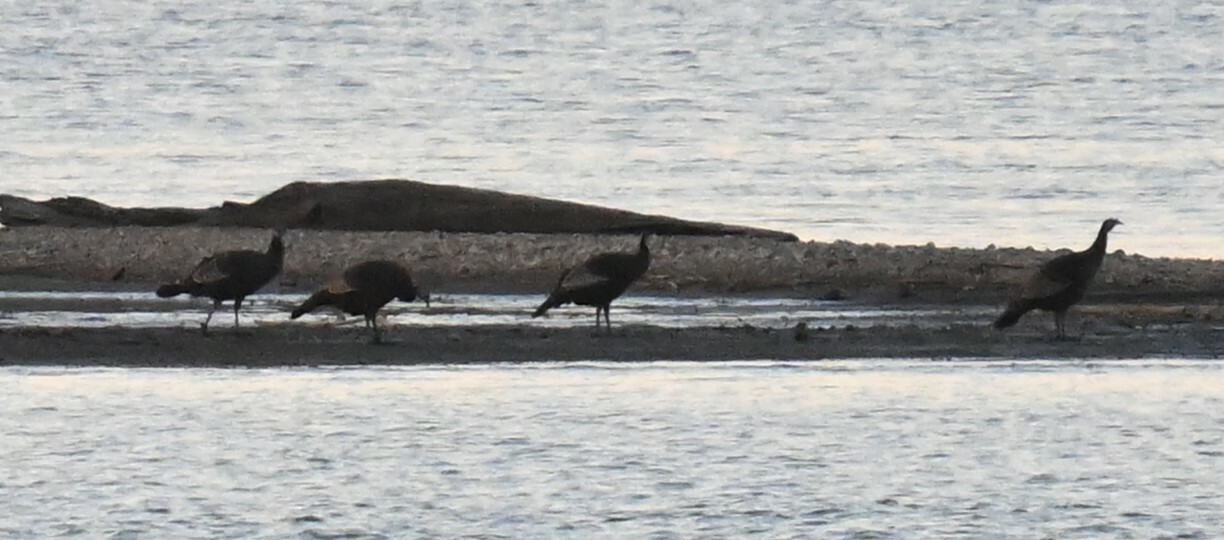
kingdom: Animalia
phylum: Chordata
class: Aves
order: Galliformes
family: Phasianidae
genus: Meleagris
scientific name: Meleagris gallopavo
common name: Wild turkey
